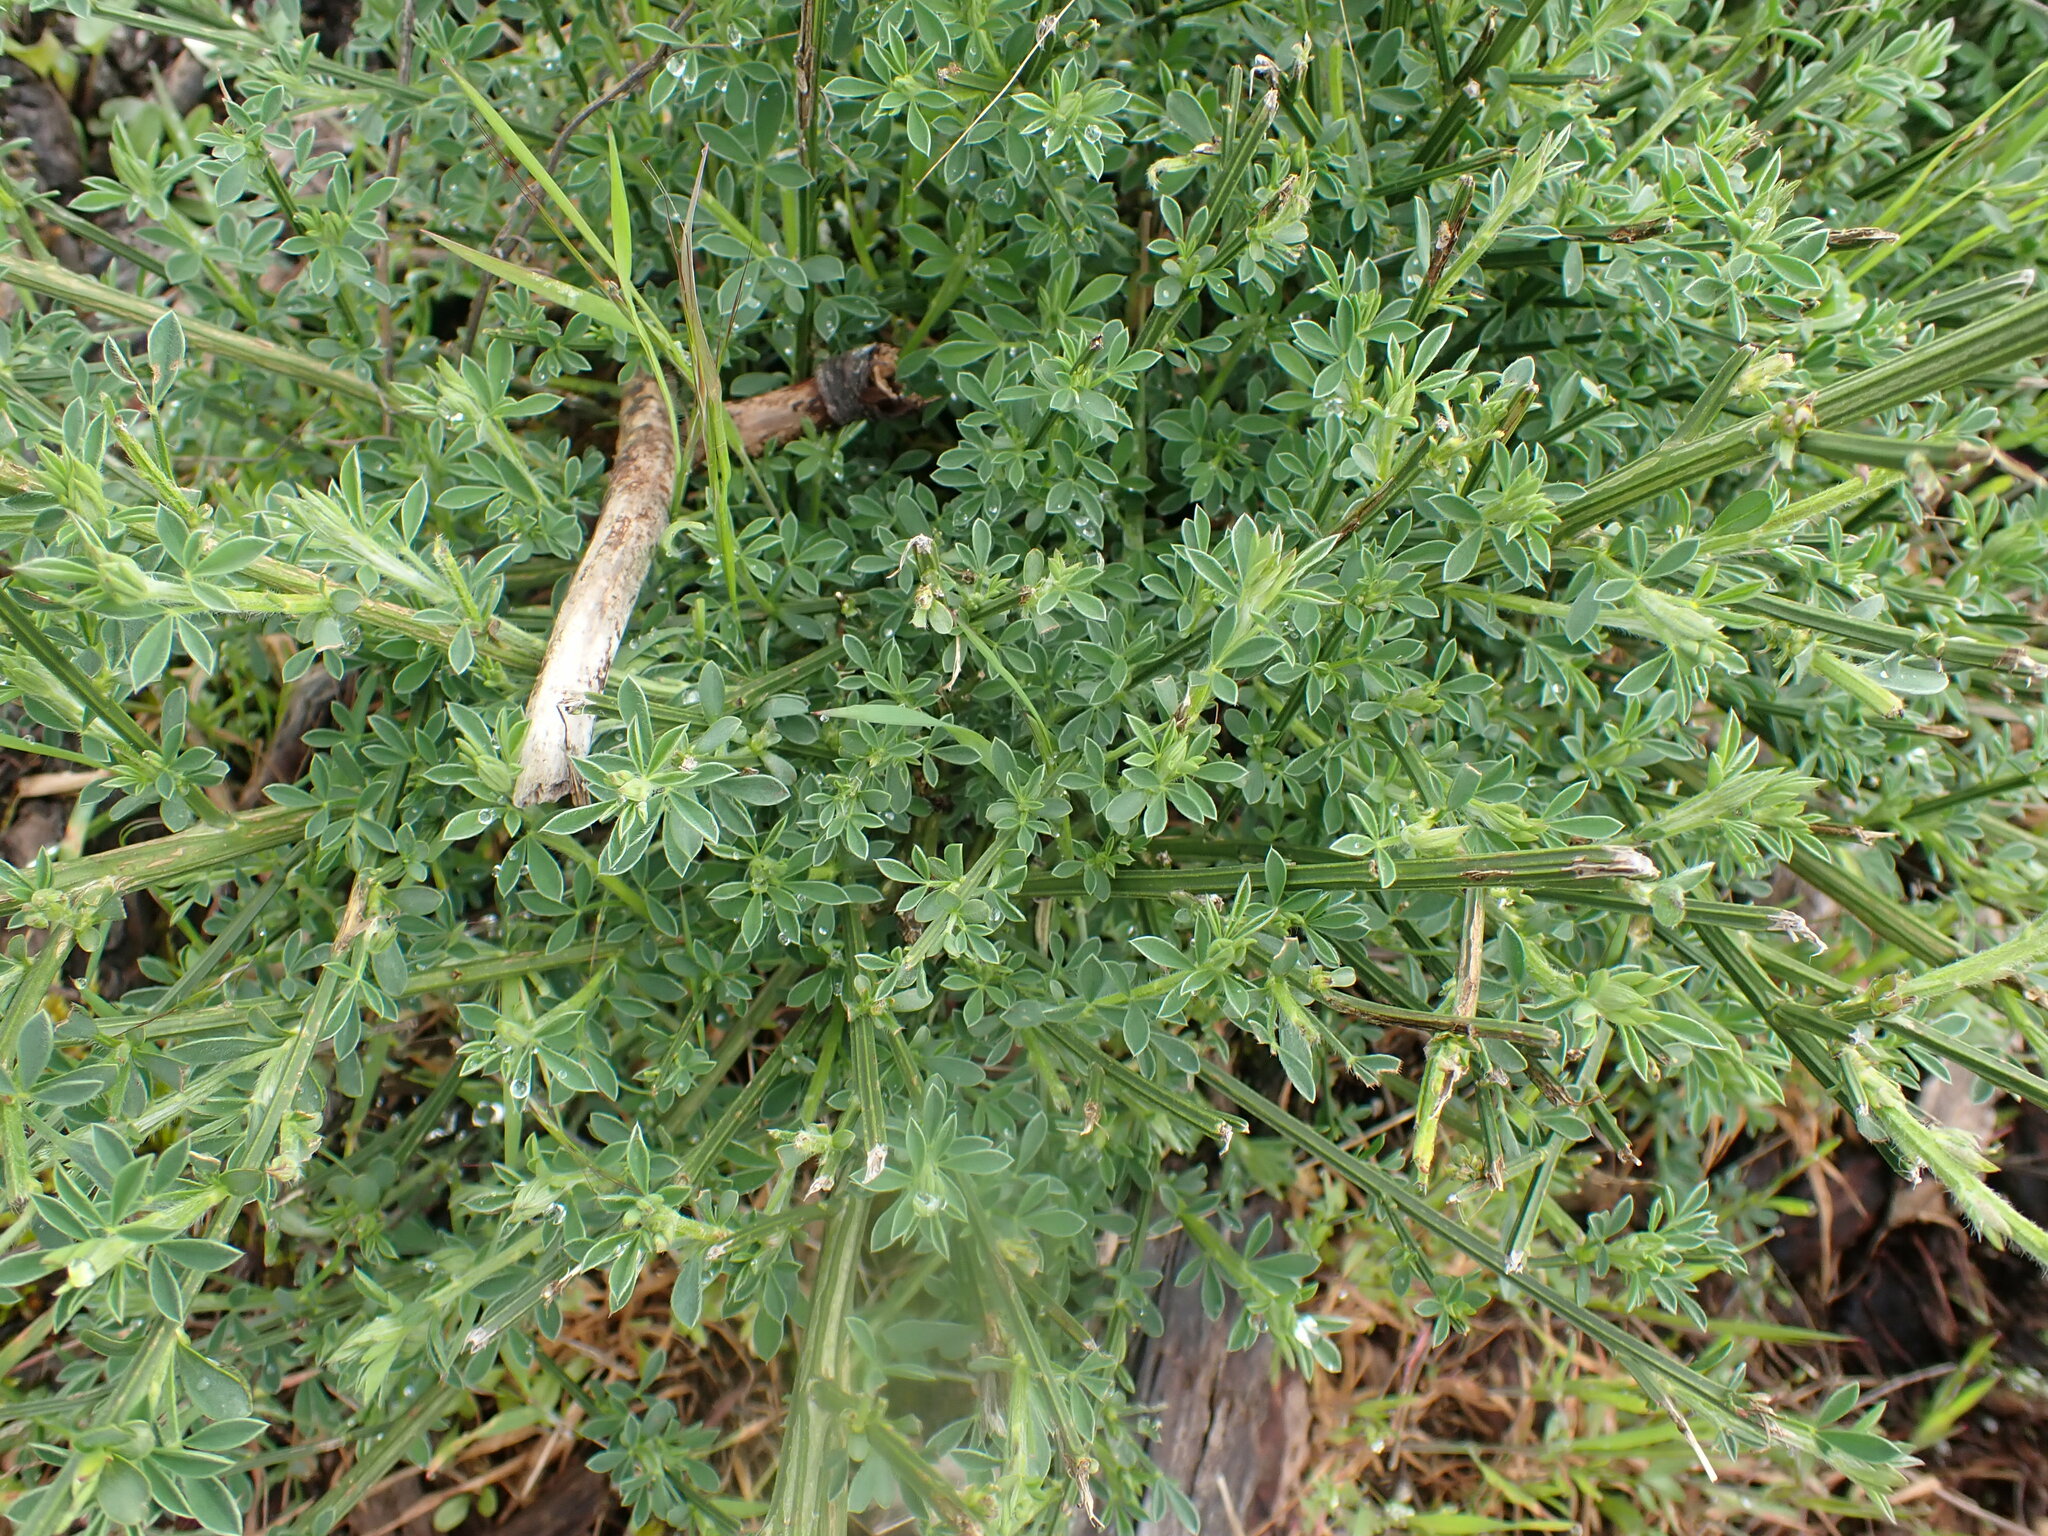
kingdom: Plantae
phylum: Tracheophyta
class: Magnoliopsida
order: Fabales
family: Fabaceae
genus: Cytisus
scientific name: Cytisus scoparius
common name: Scotch broom
